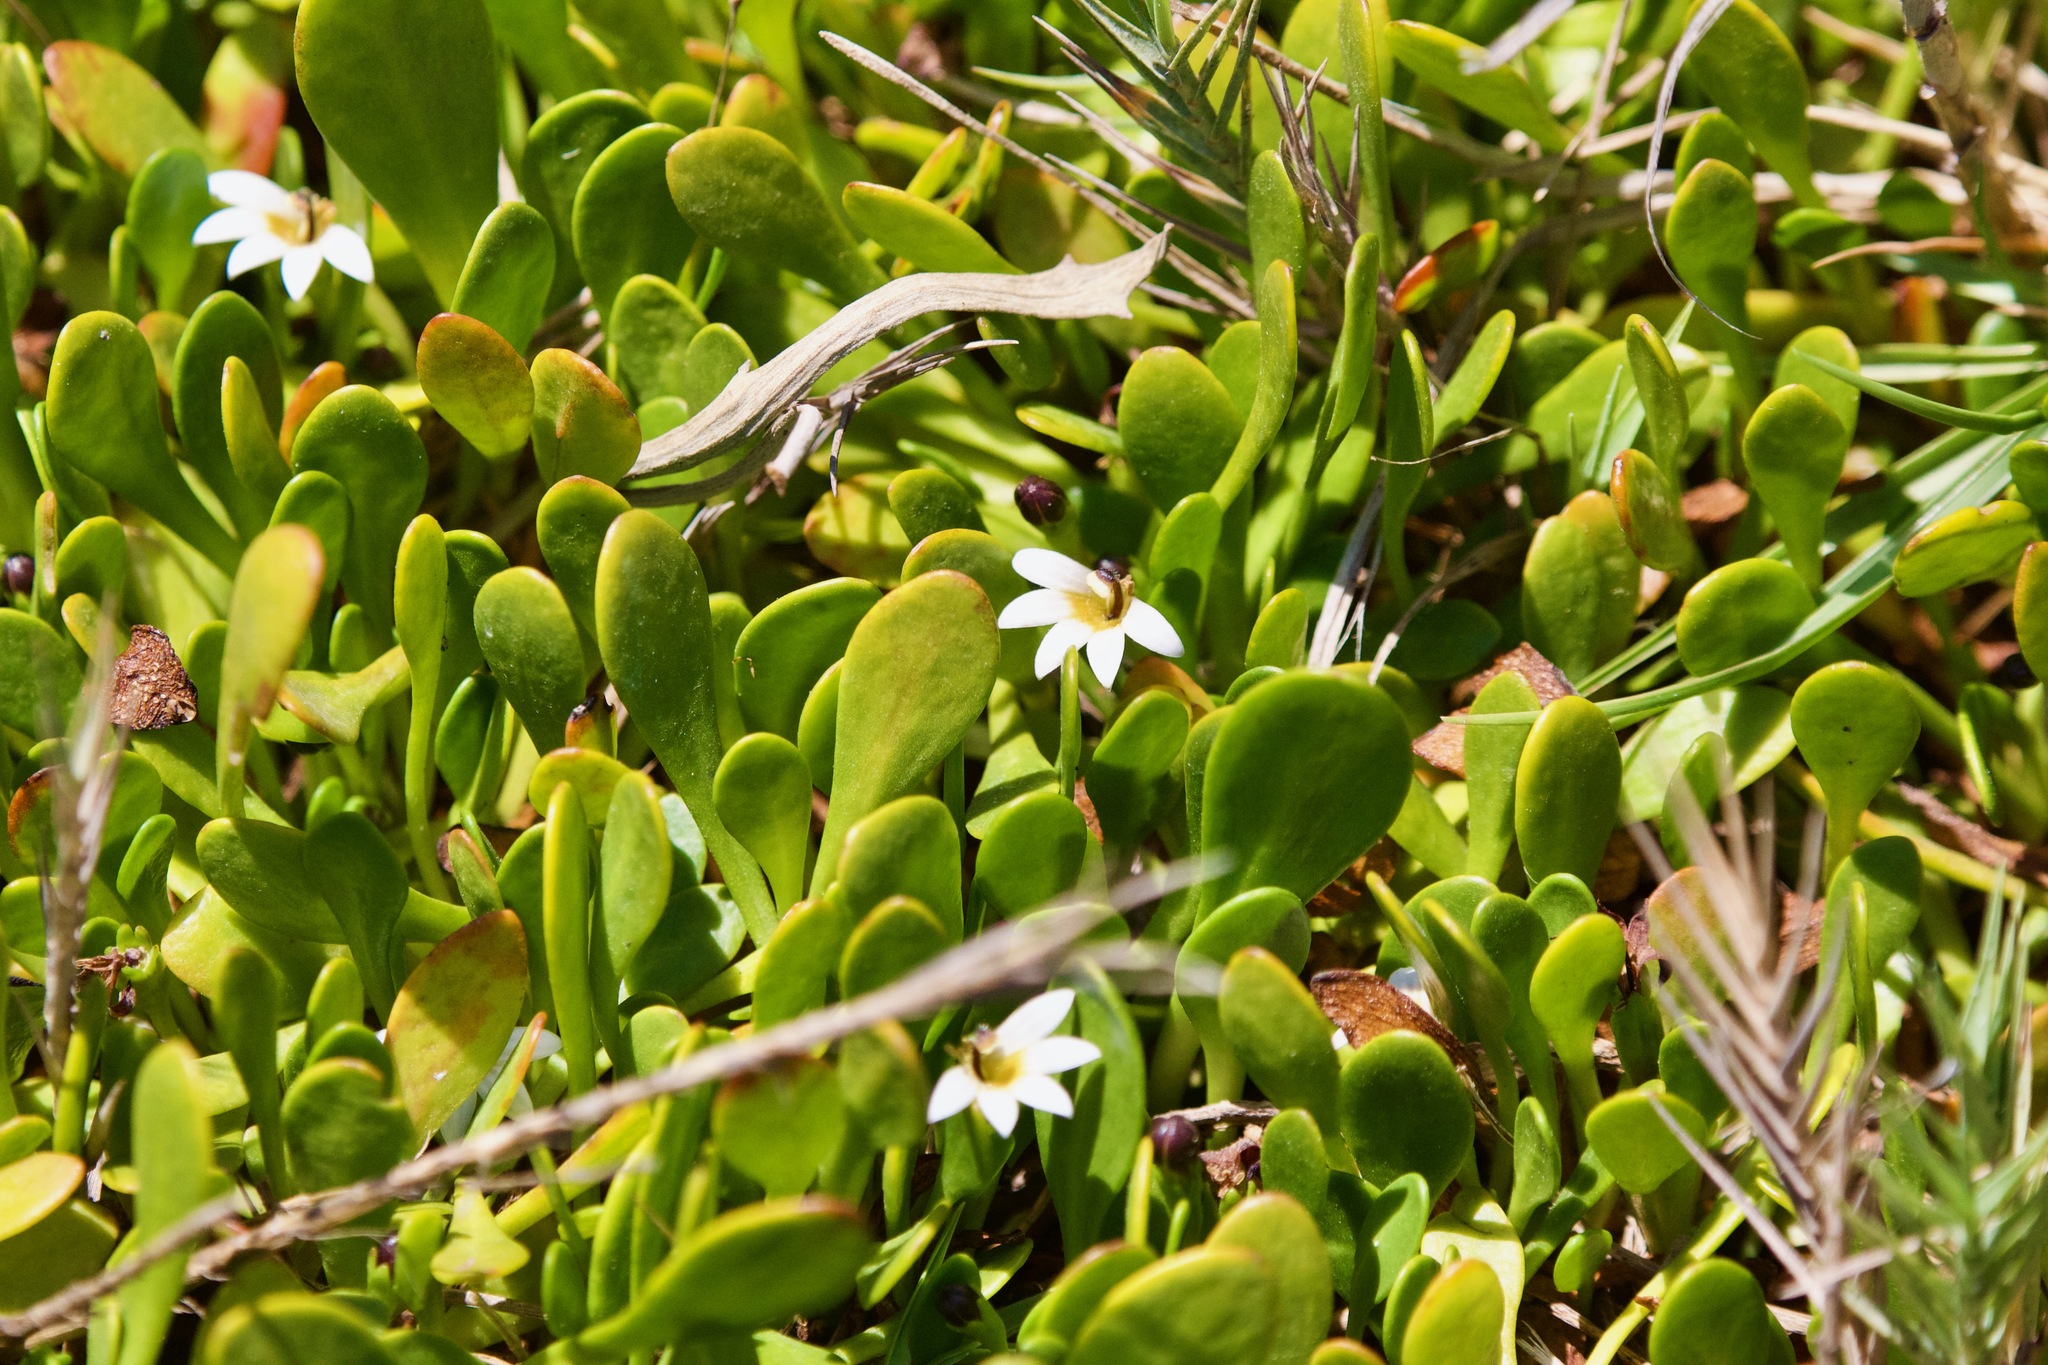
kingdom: Plantae
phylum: Tracheophyta
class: Magnoliopsida
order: Asterales
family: Goodeniaceae
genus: Goodenia
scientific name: Goodenia radicans
